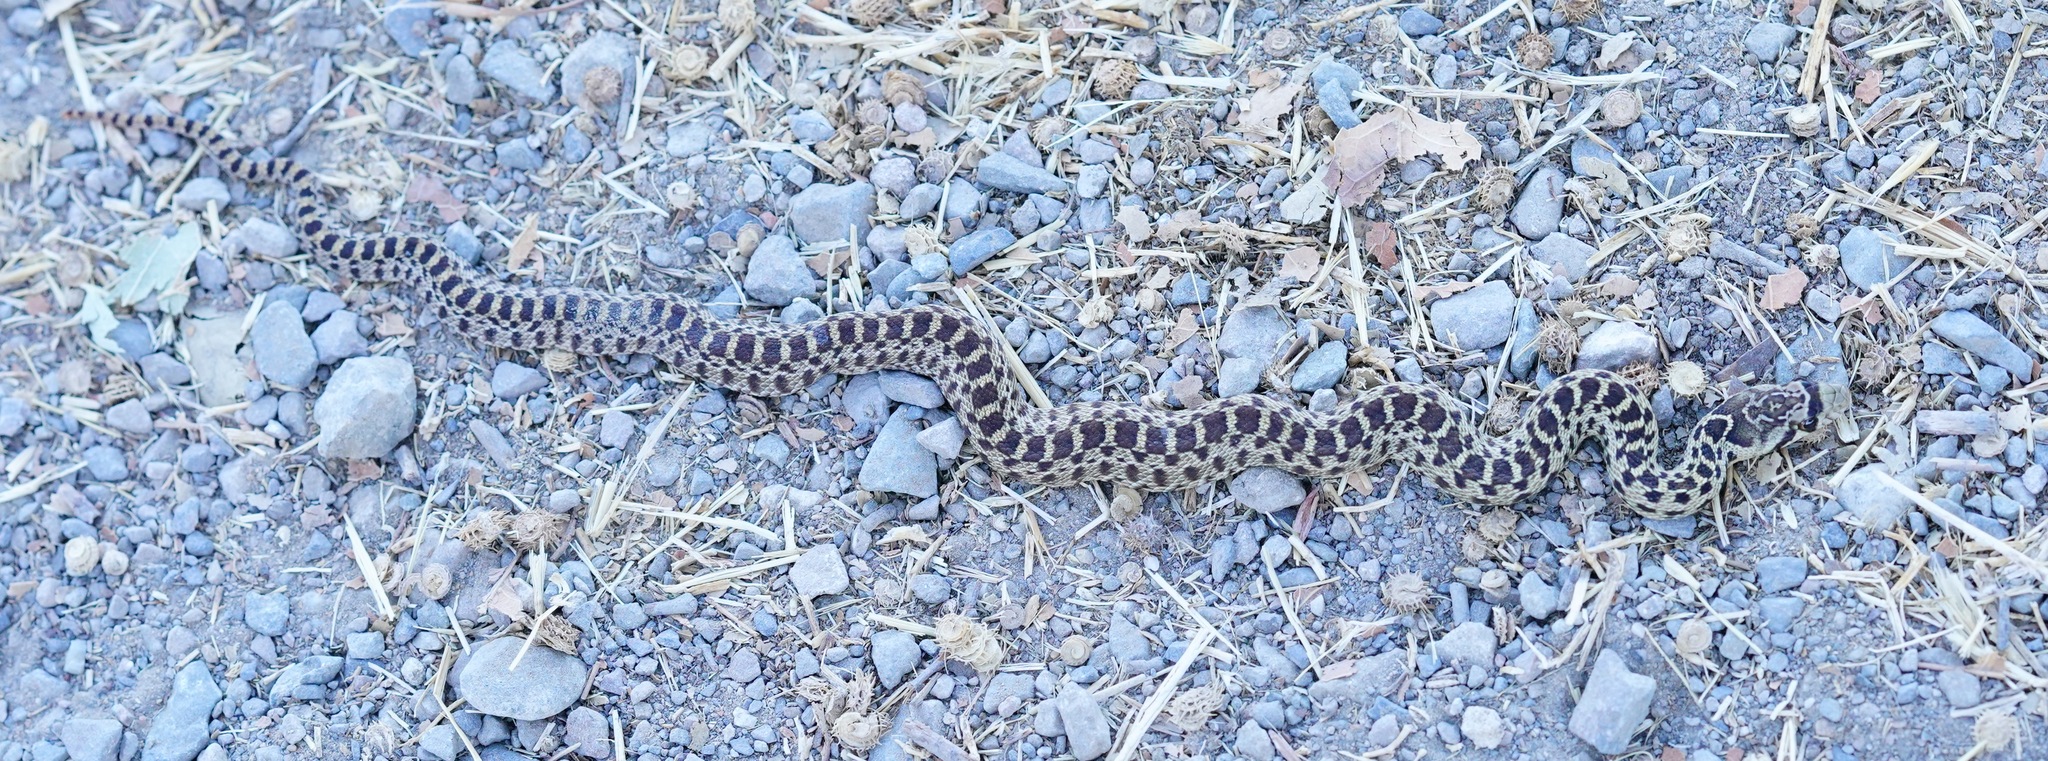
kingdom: Animalia
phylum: Chordata
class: Squamata
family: Colubridae
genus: Pituophis
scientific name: Pituophis catenifer
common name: Gopher snake
